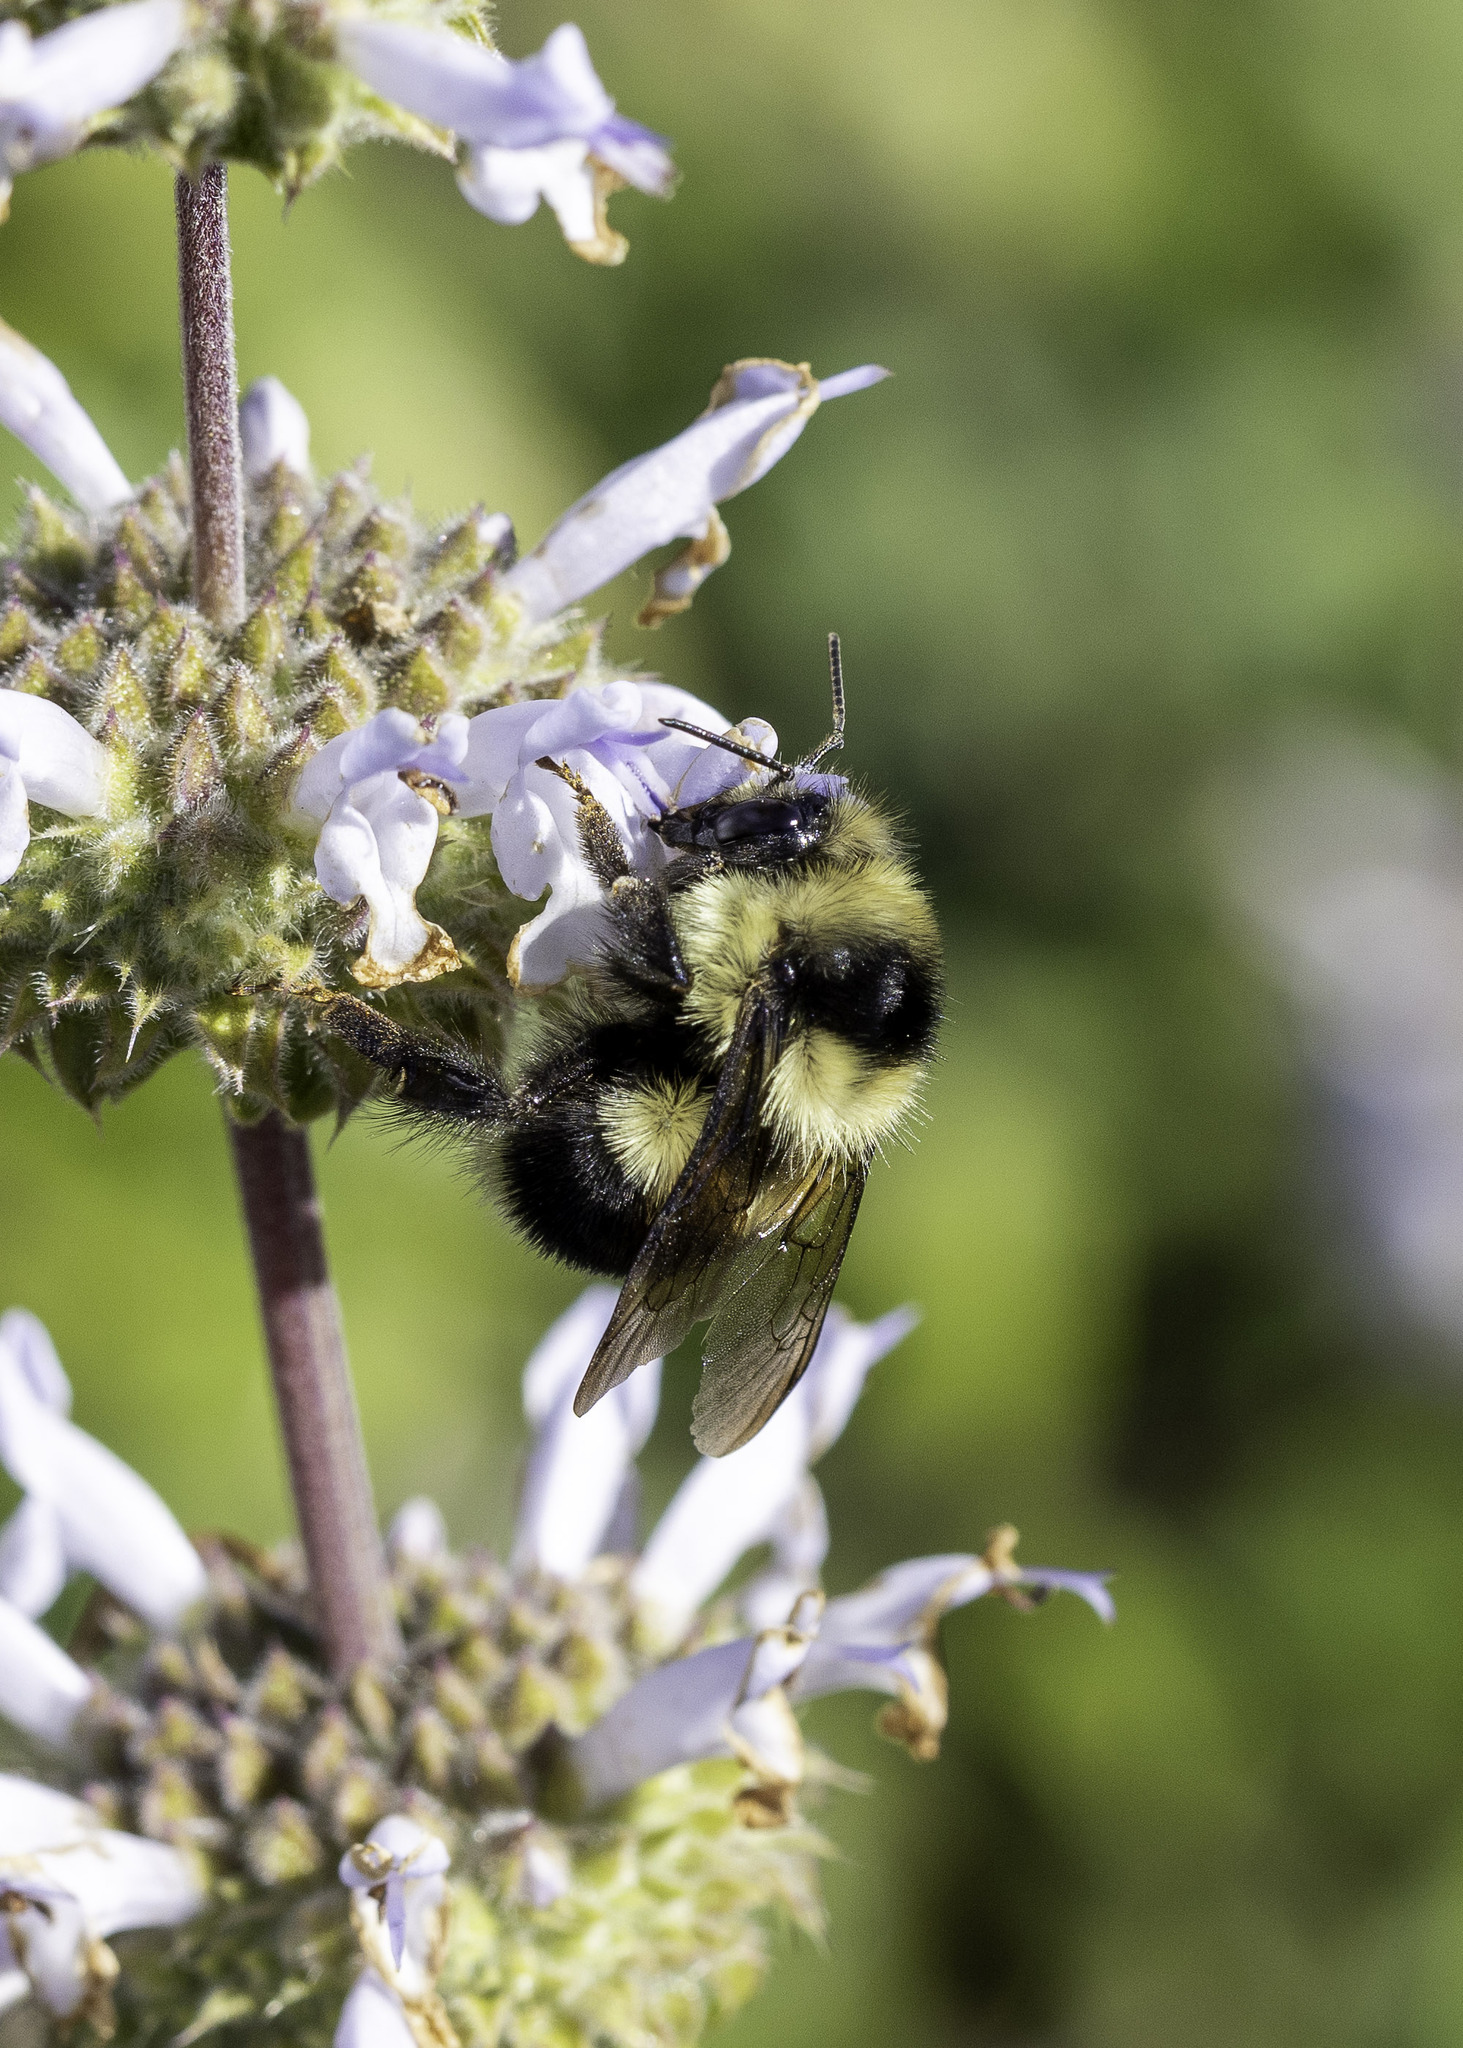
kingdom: Animalia
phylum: Arthropoda
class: Insecta
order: Hymenoptera
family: Apidae
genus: Bombus
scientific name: Bombus melanopygus
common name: Black tail bumble bee
